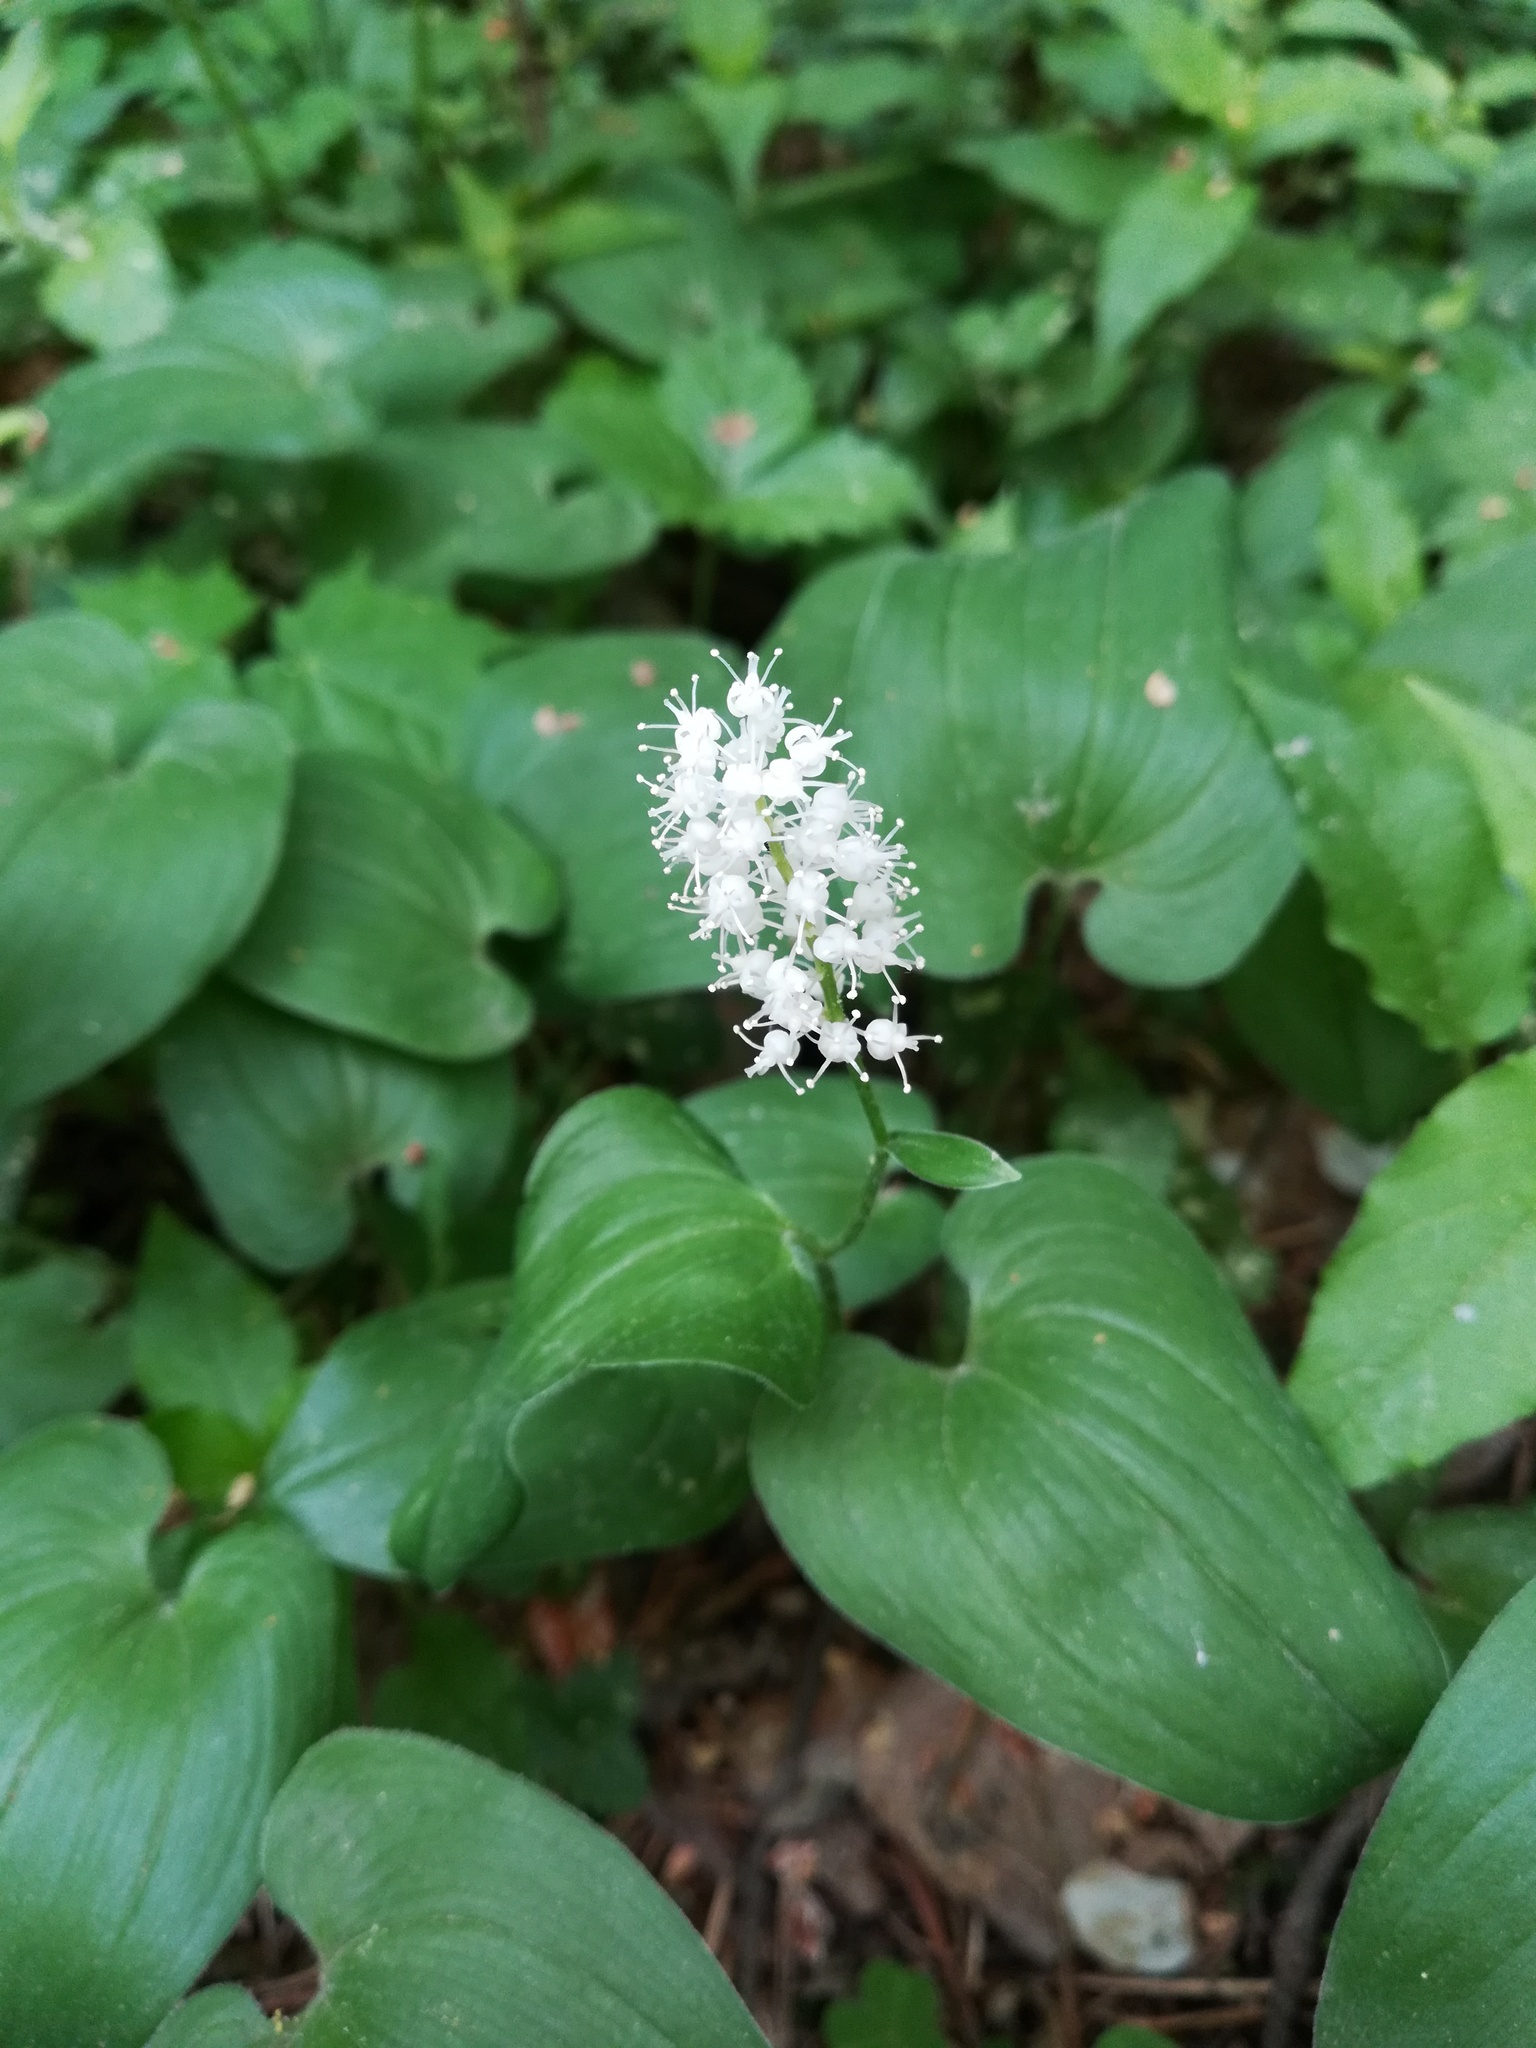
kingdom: Plantae
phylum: Tracheophyta
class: Liliopsida
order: Asparagales
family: Asparagaceae
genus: Maianthemum
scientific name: Maianthemum bifolium
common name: May lily
